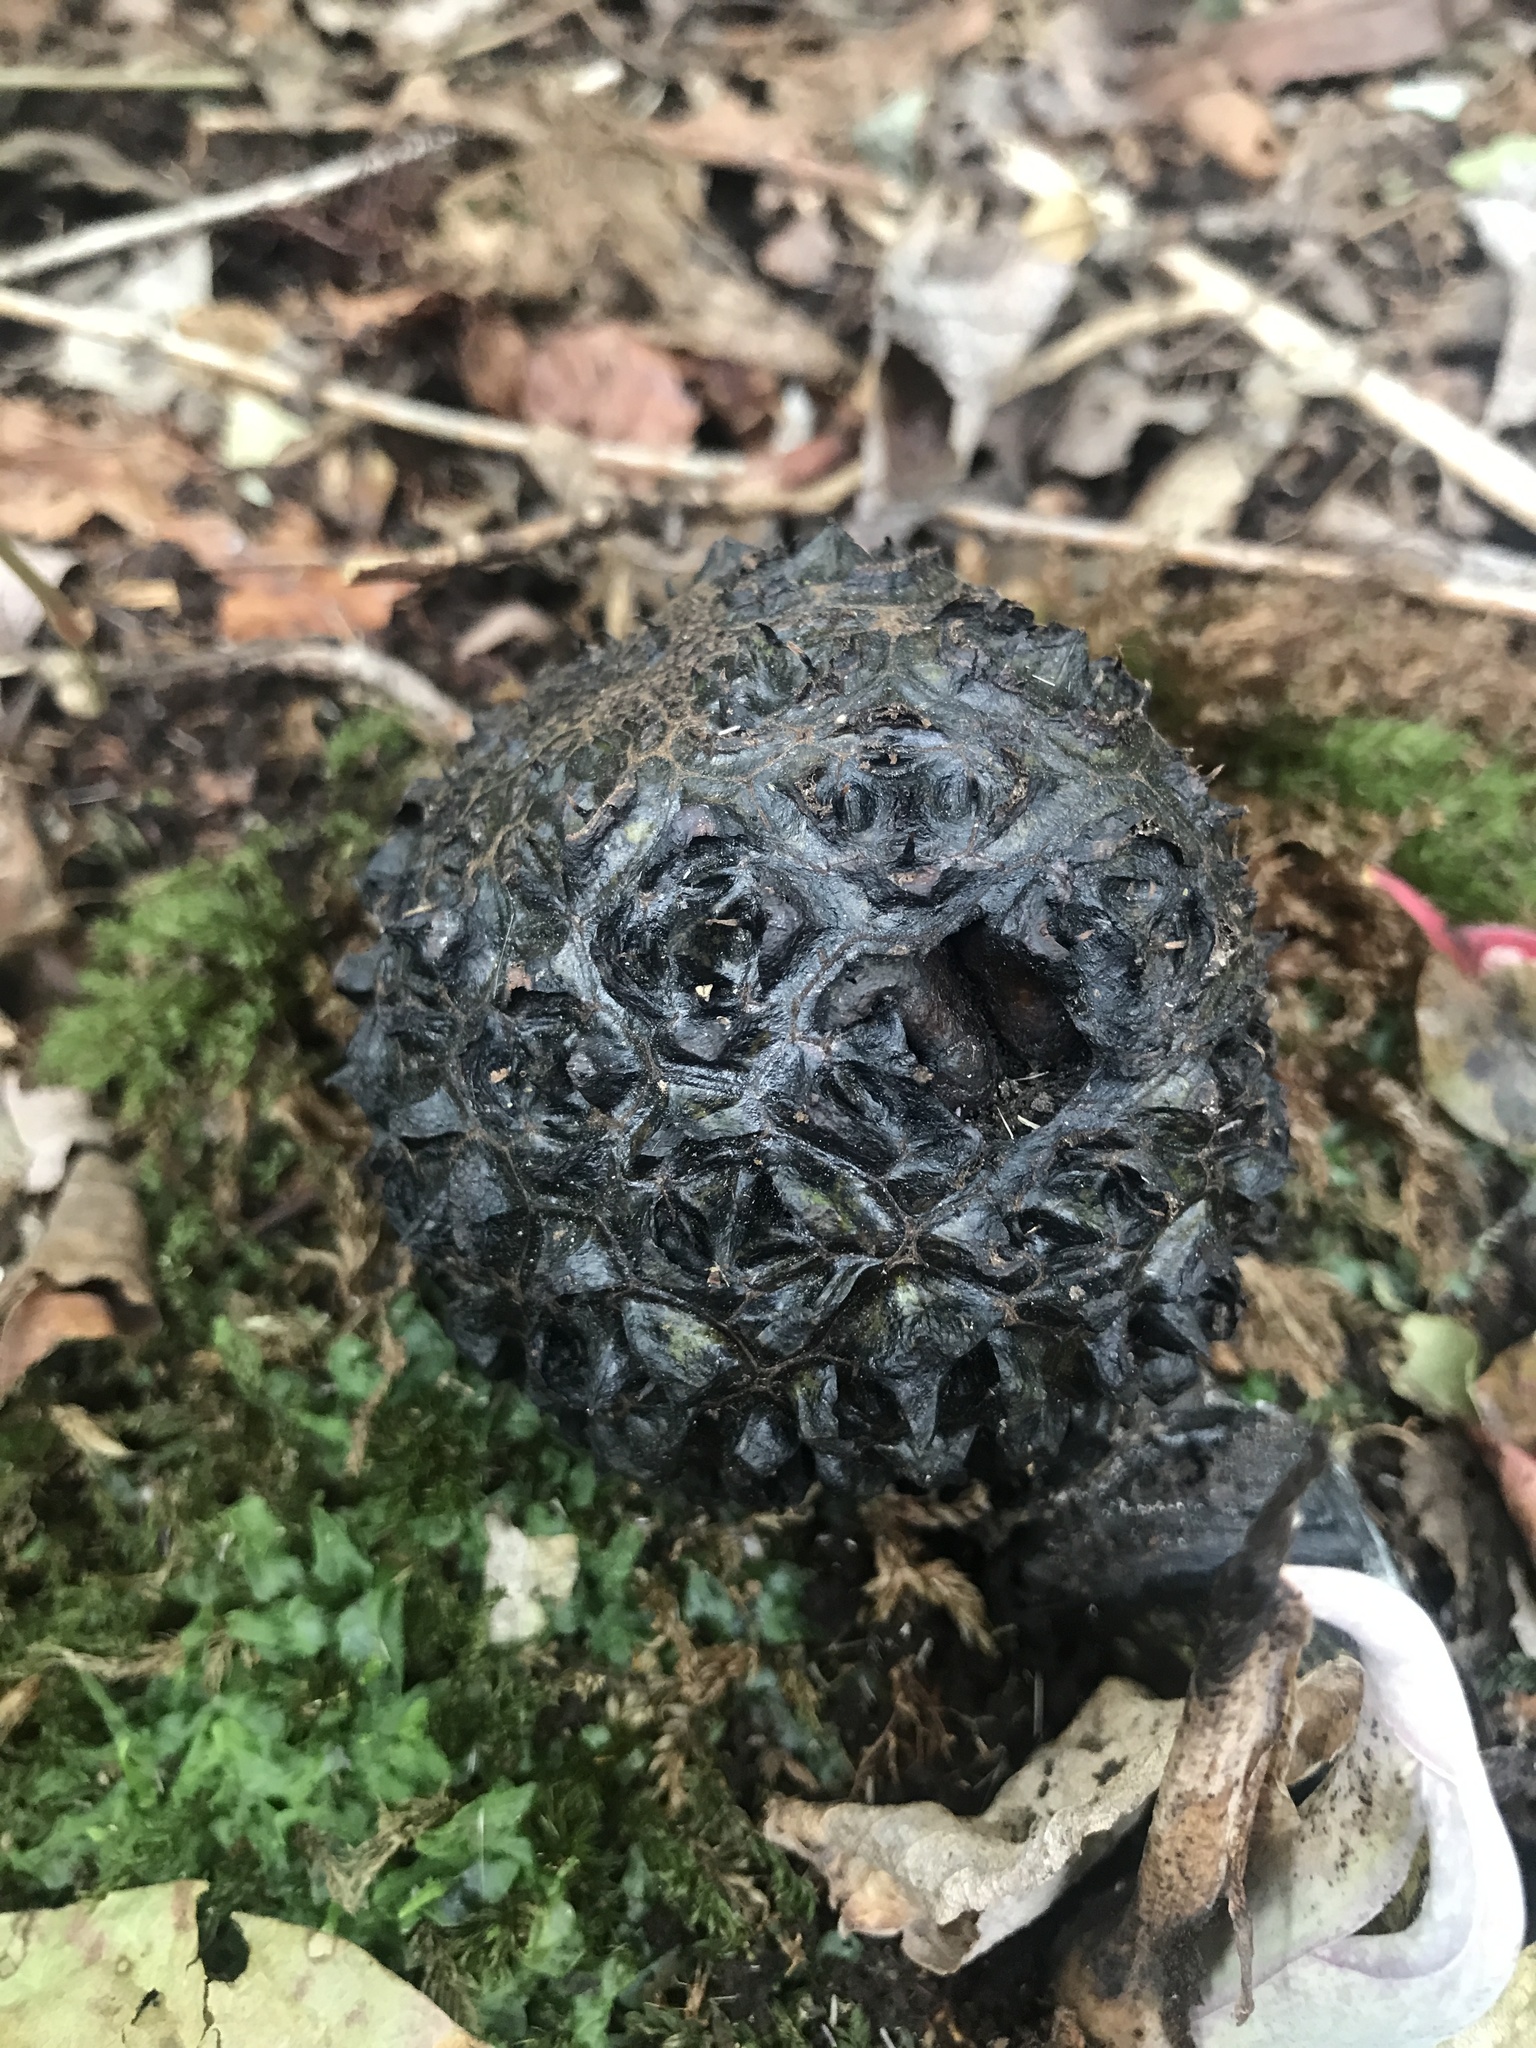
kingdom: Plantae
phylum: Tracheophyta
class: Liliopsida
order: Alismatales
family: Araceae
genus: Symplocarpus
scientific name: Symplocarpus foetidus
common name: Eastern skunk cabbage
